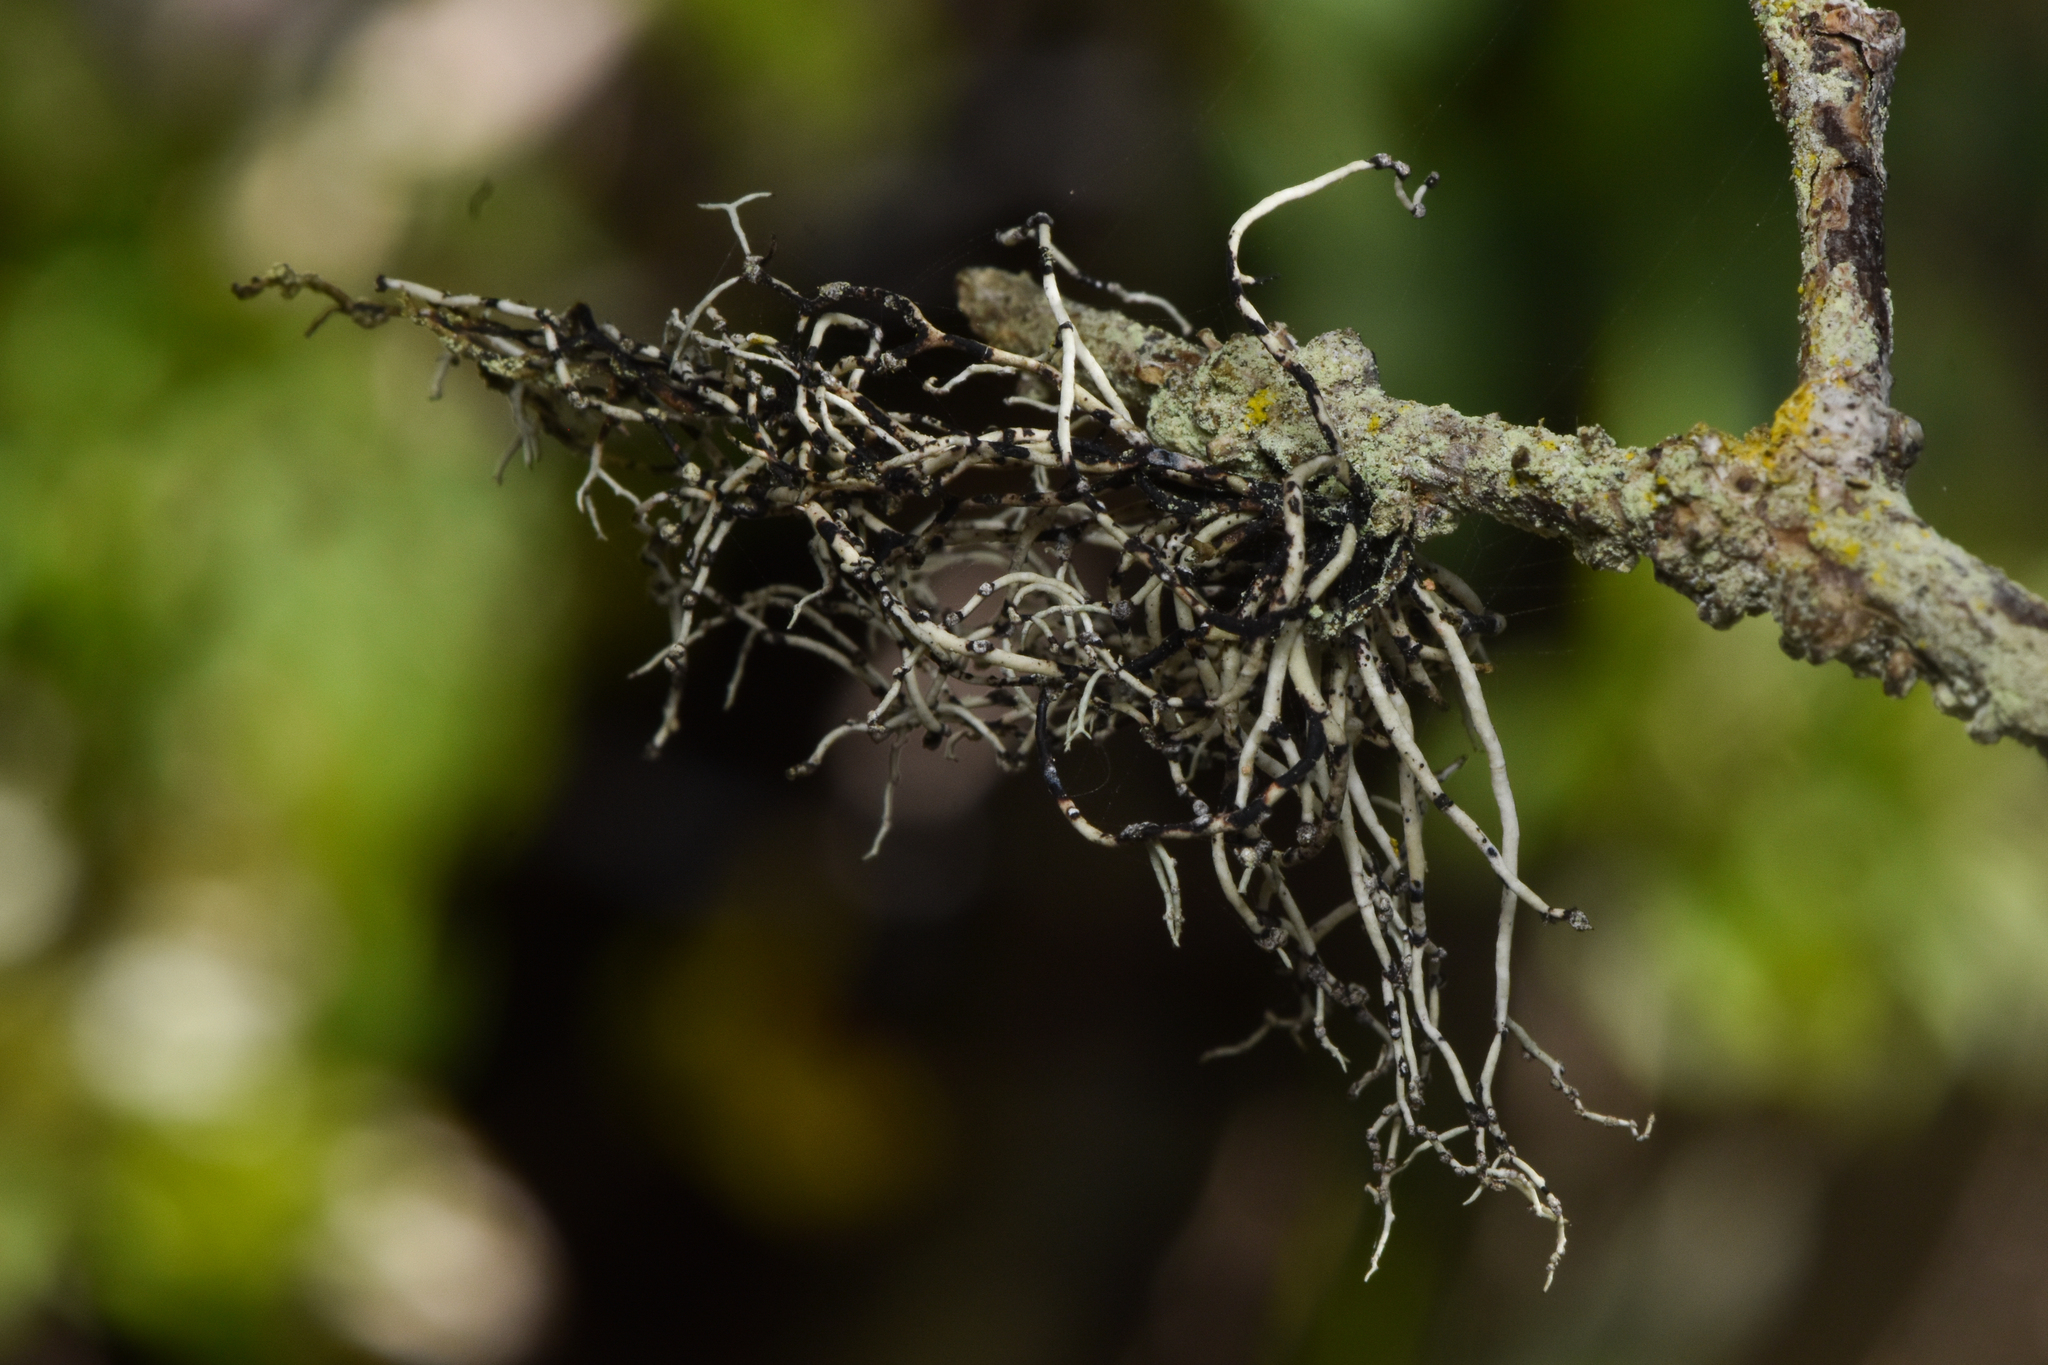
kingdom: Fungi
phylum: Ascomycota
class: Lecanoromycetes
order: Lecanorales
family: Ramalinaceae
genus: Niebla
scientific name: Niebla cephalota
